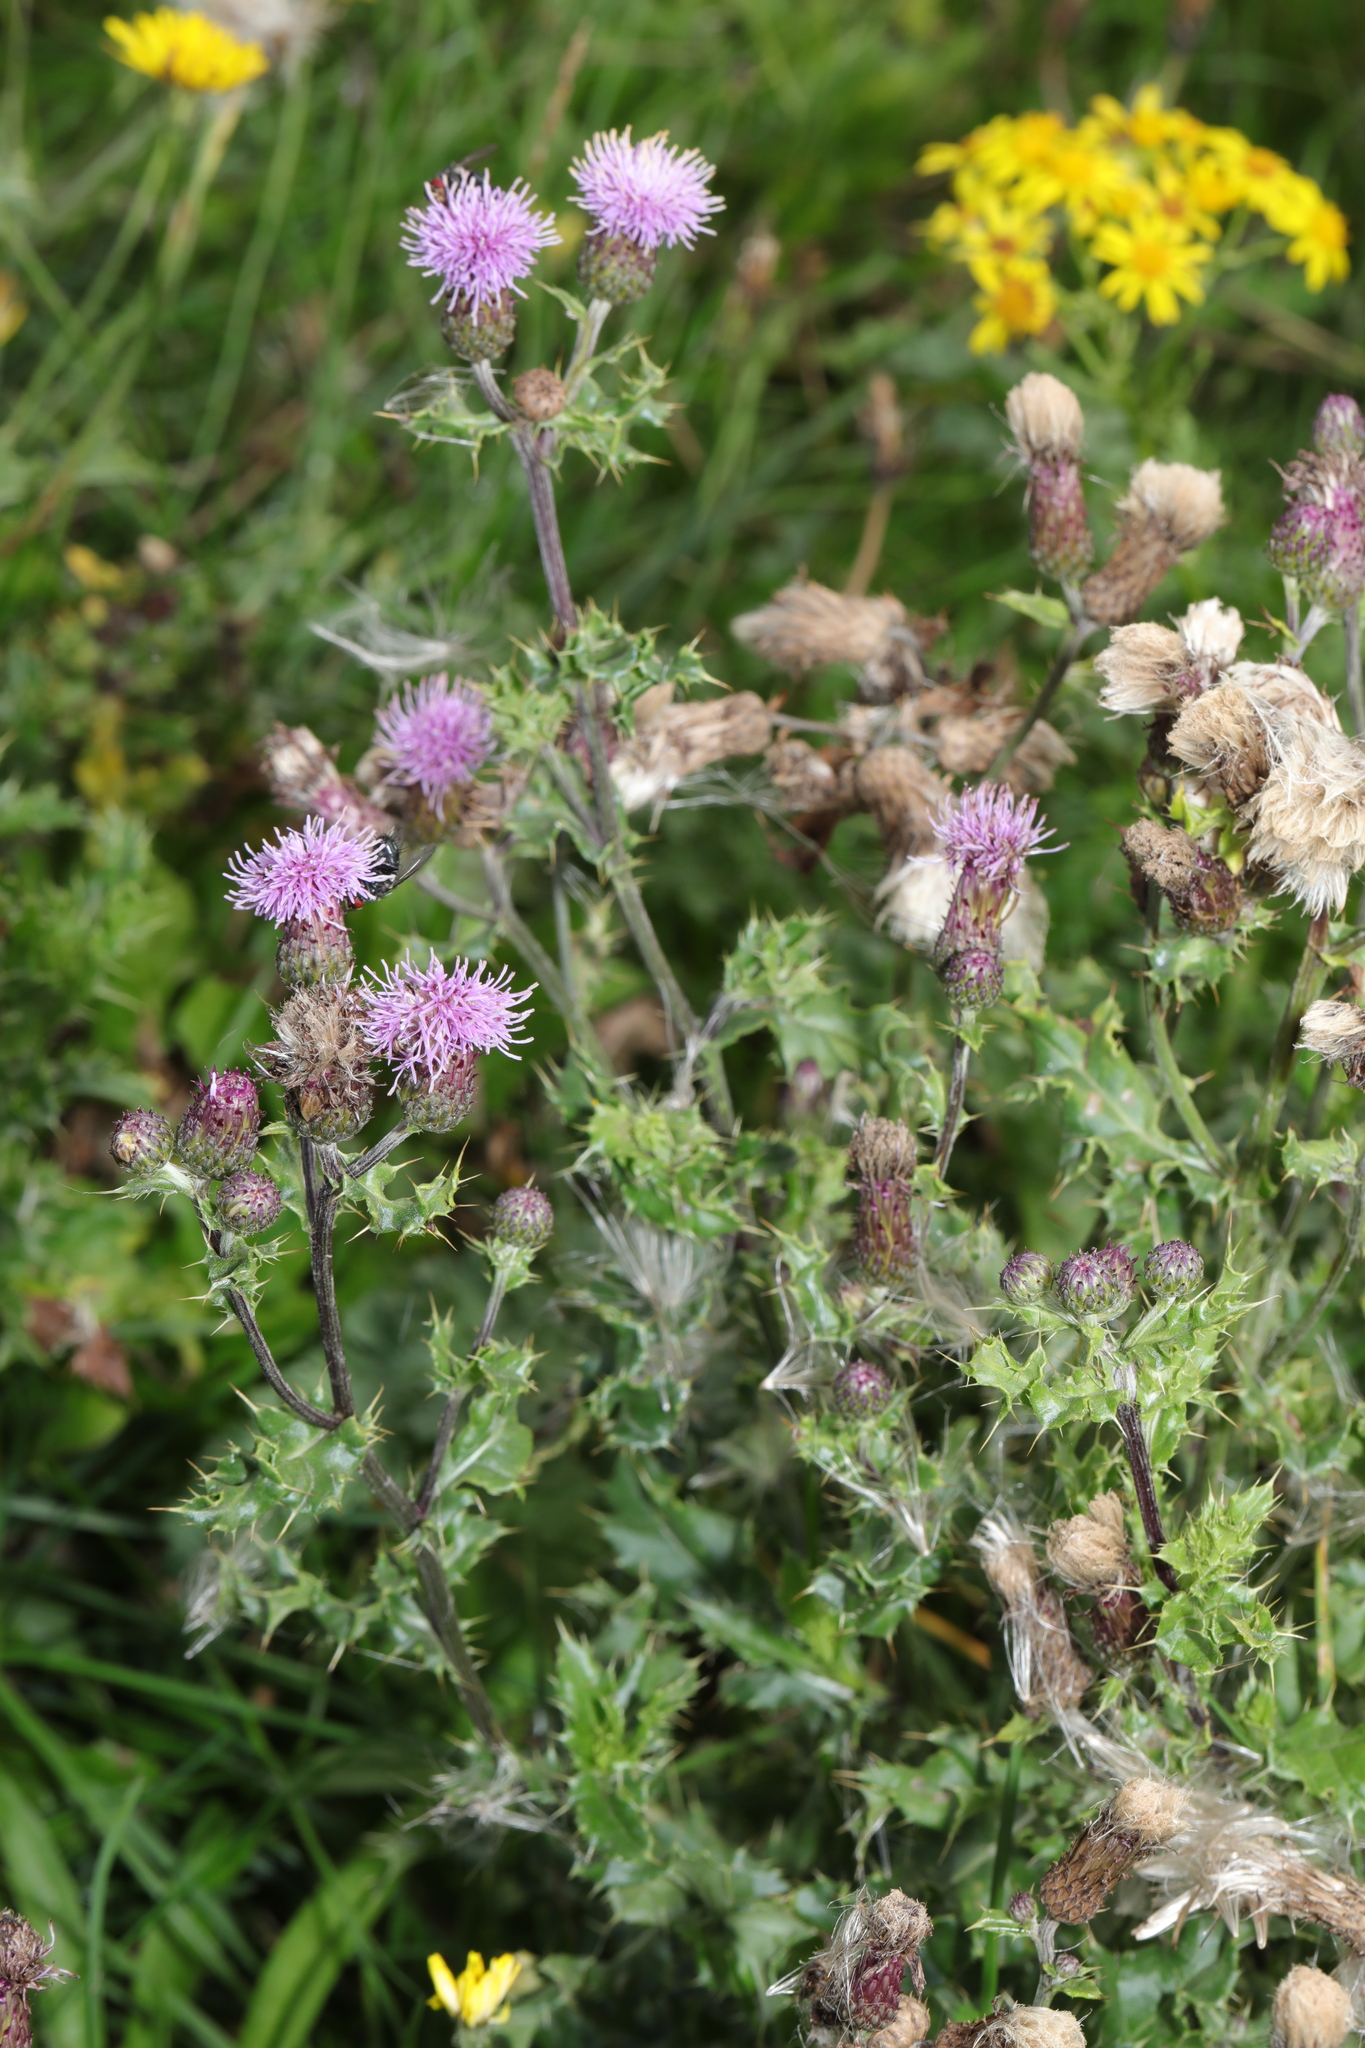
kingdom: Plantae
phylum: Tracheophyta
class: Magnoliopsida
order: Asterales
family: Asteraceae
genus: Cirsium
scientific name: Cirsium arvense
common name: Creeping thistle
